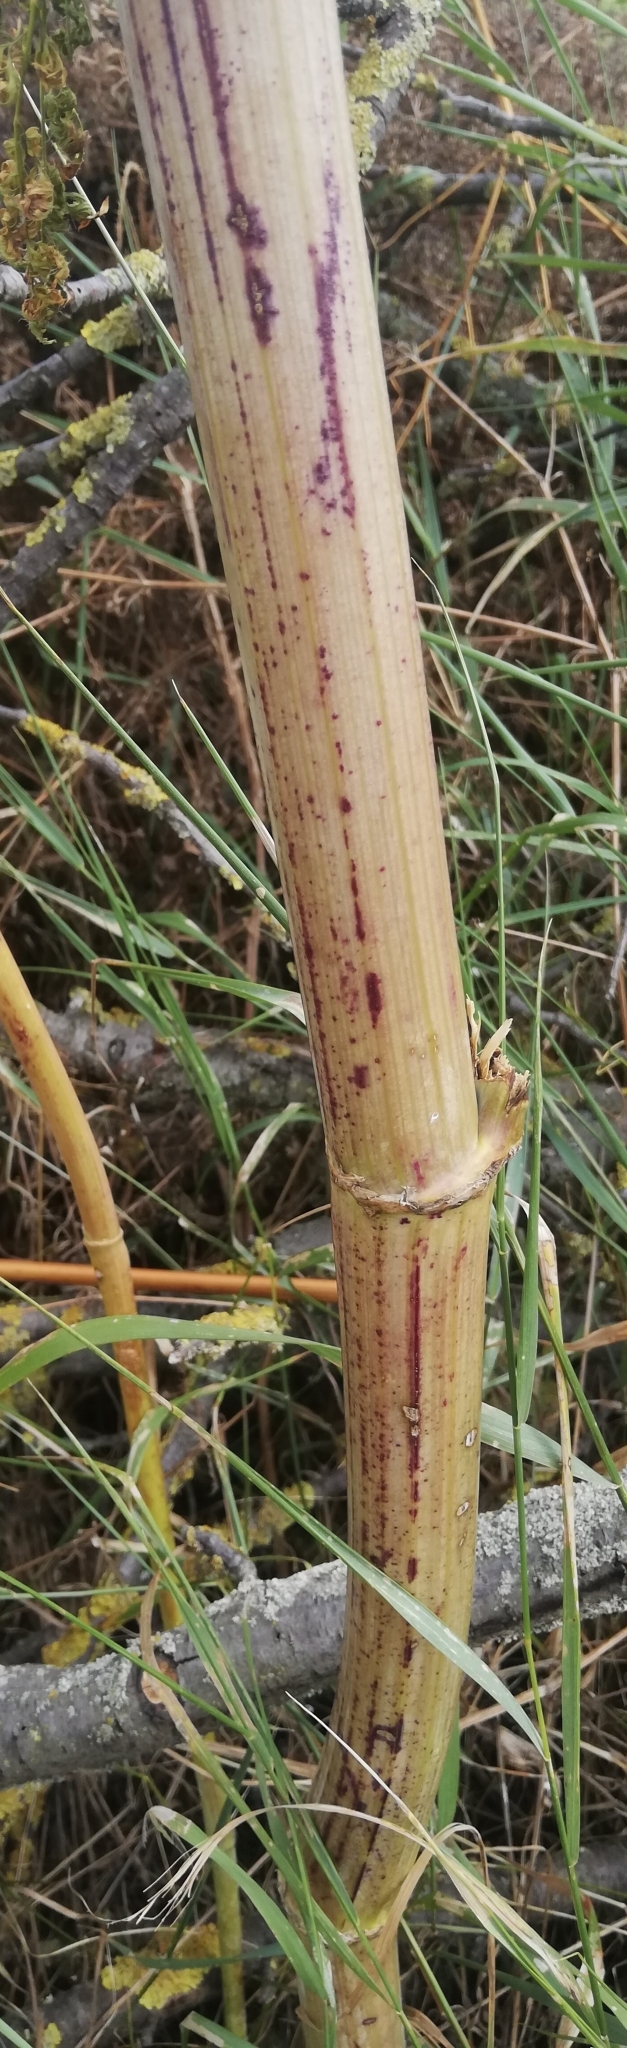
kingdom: Plantae
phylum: Tracheophyta
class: Magnoliopsida
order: Apiales
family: Apiaceae
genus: Conium
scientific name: Conium maculatum
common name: Hemlock
